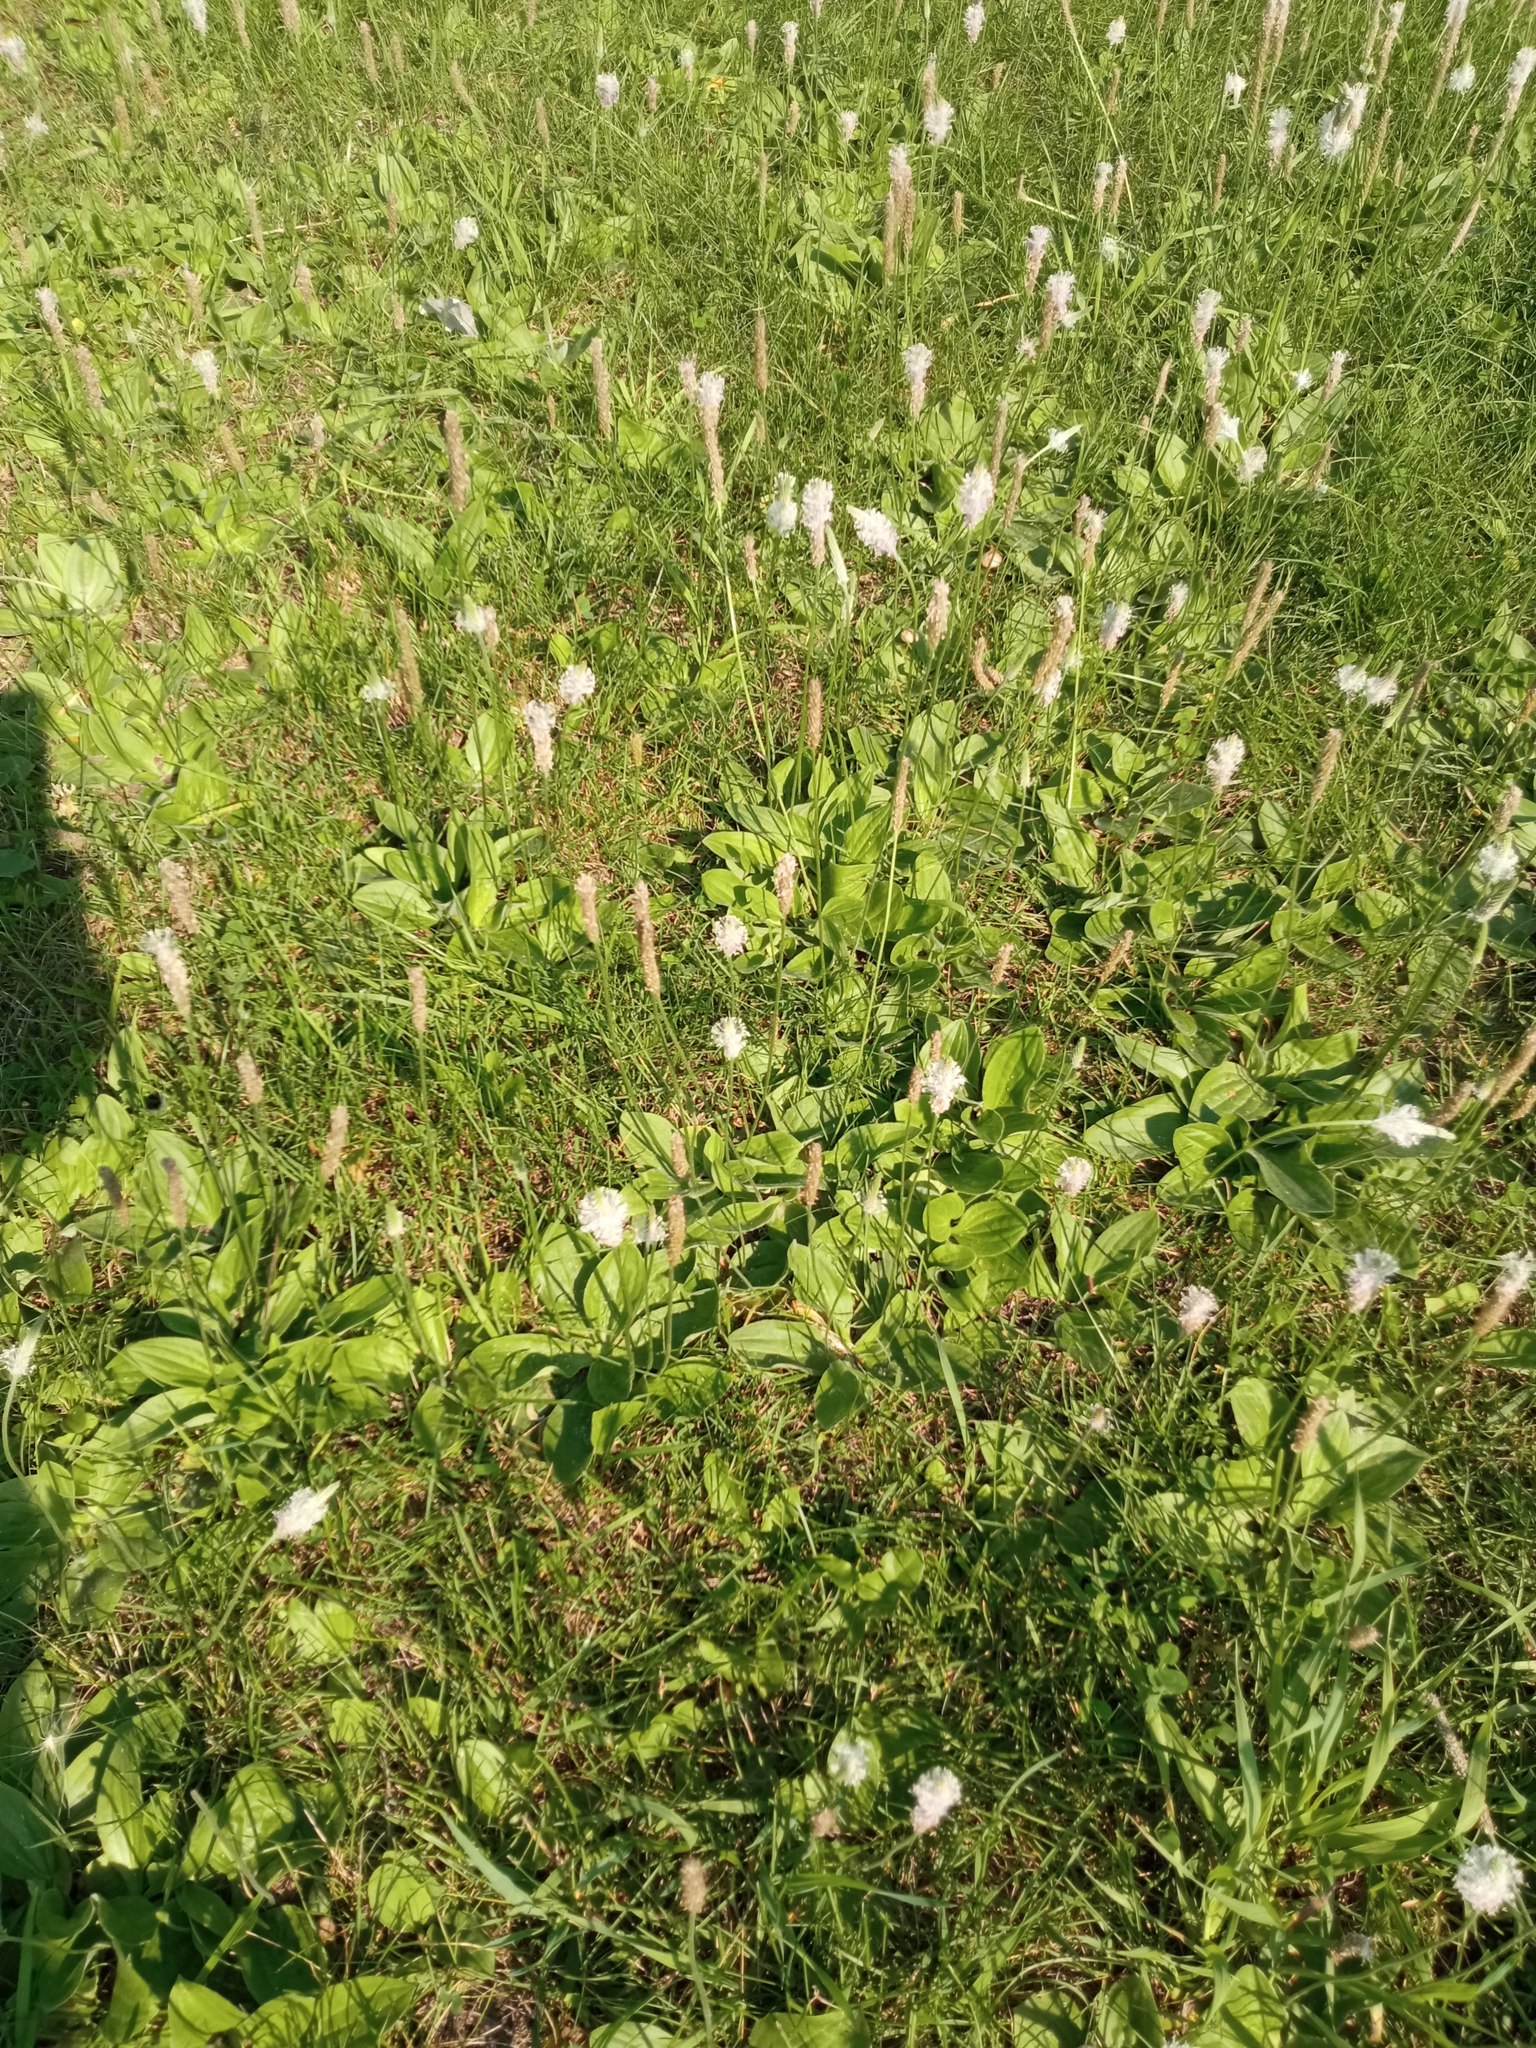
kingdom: Plantae
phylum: Tracheophyta
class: Magnoliopsida
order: Lamiales
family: Plantaginaceae
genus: Plantago
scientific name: Plantago media
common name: Hoary plantain
